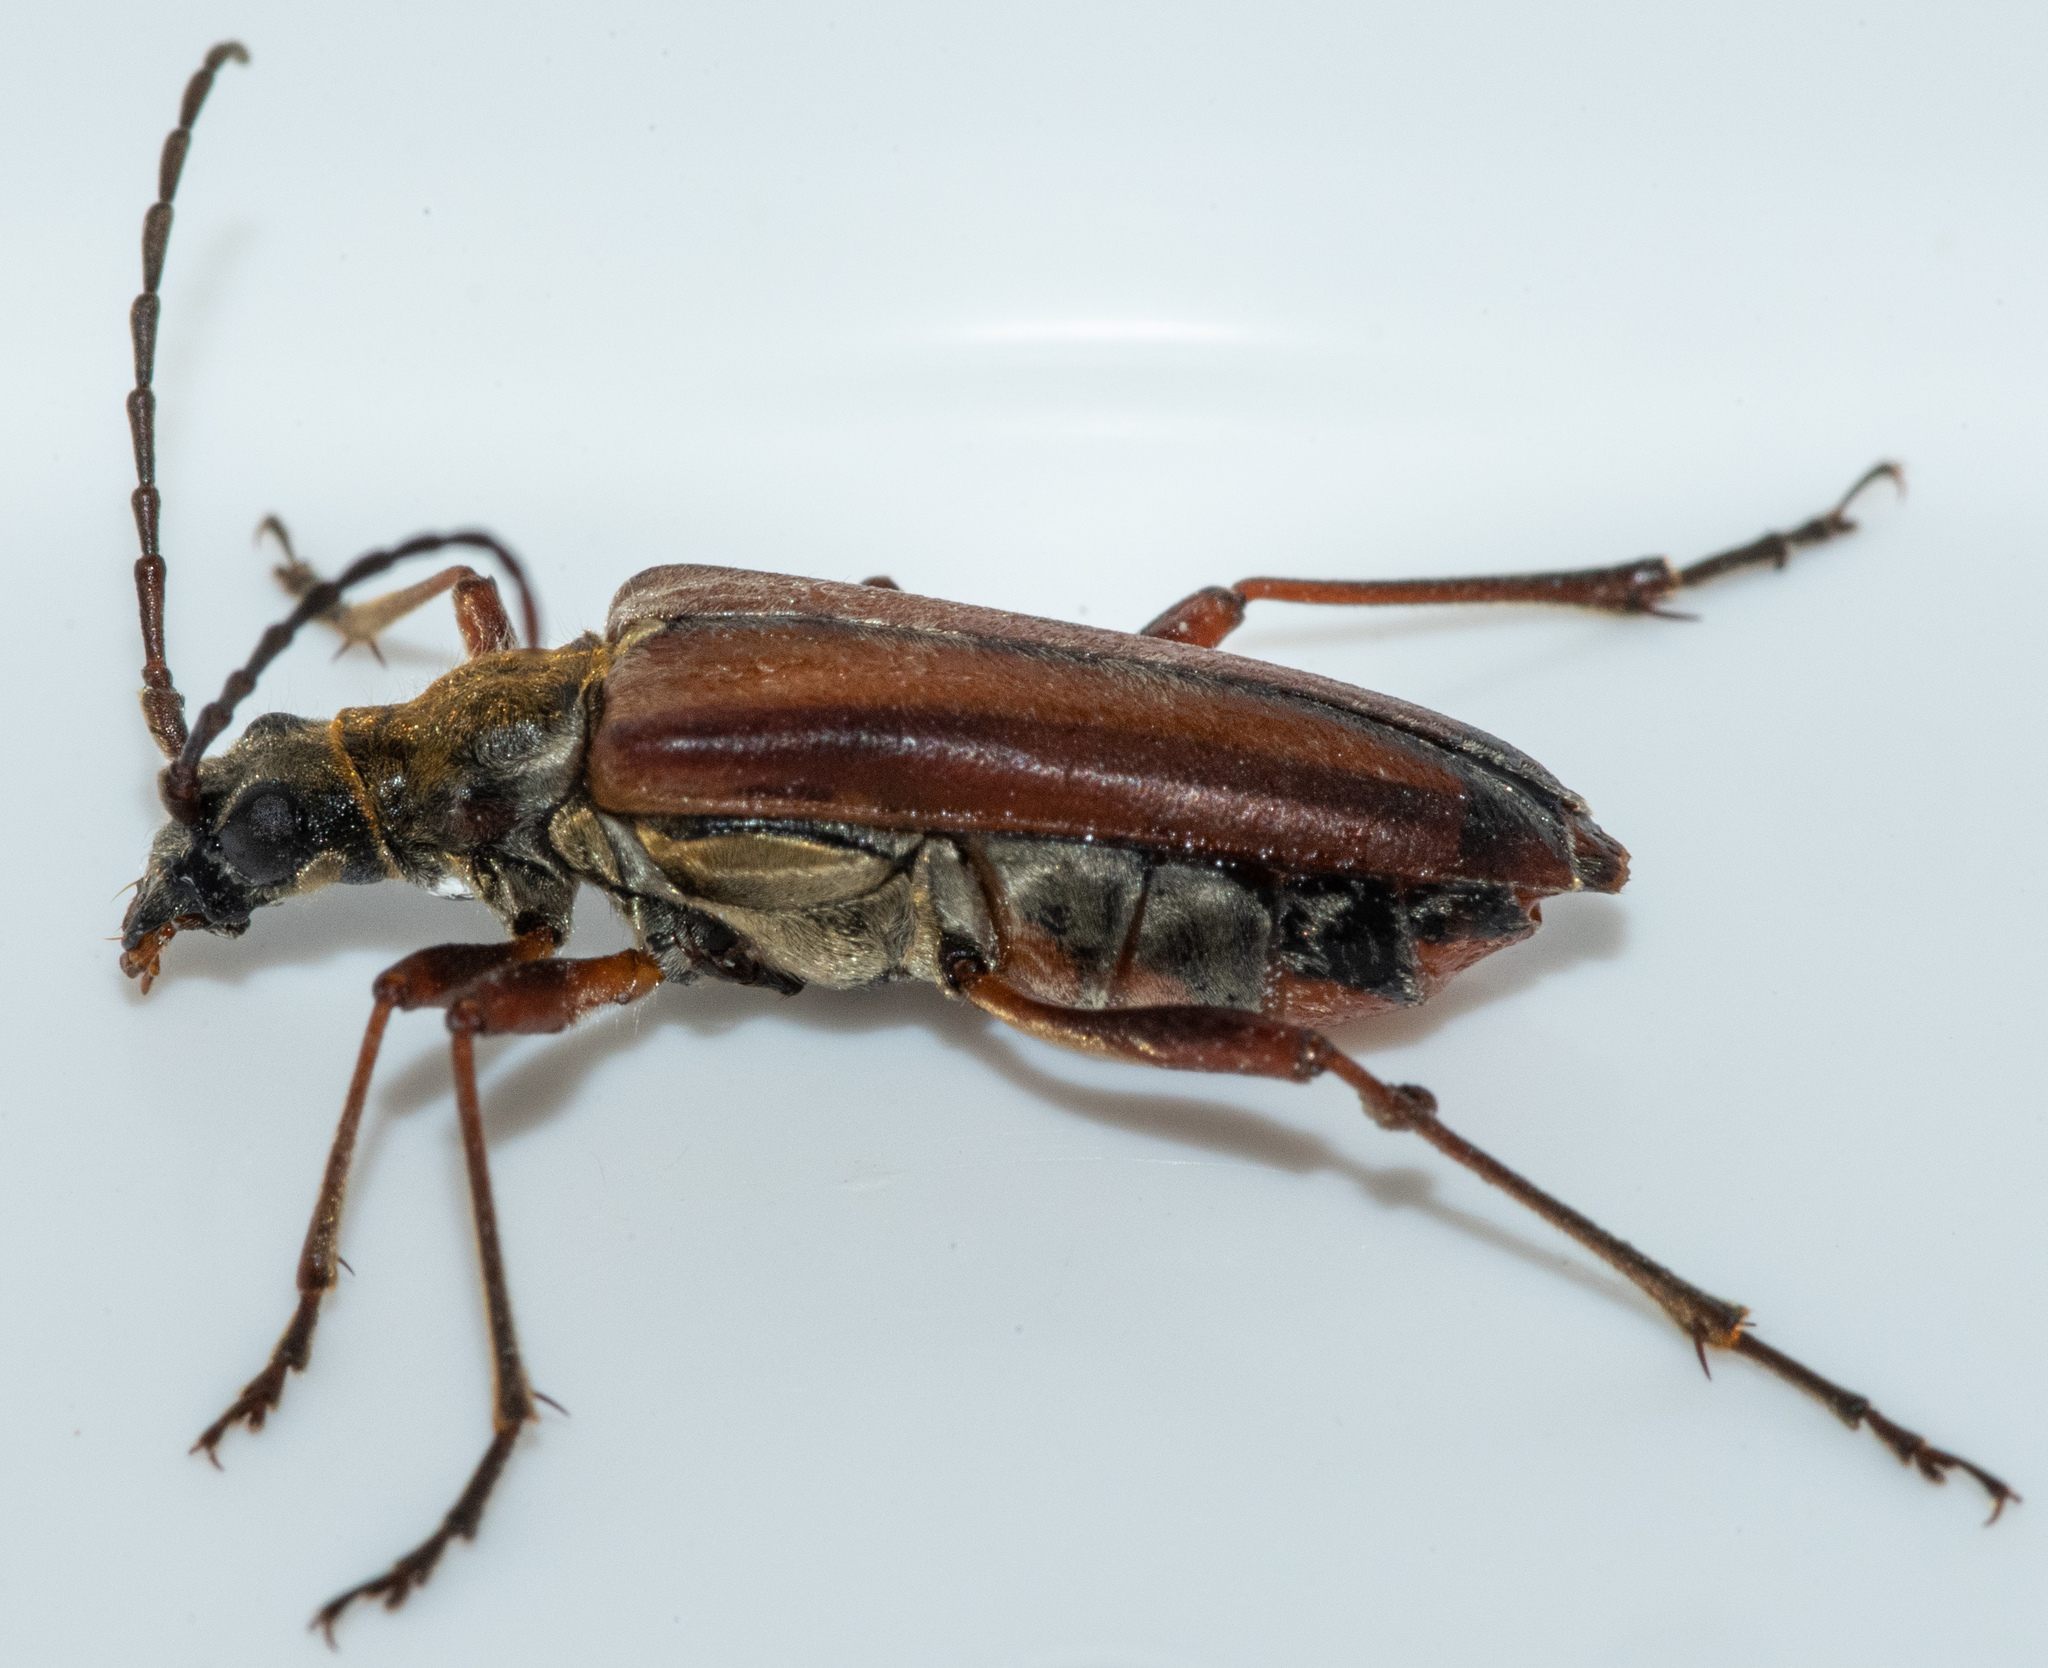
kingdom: Animalia
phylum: Arthropoda
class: Insecta
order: Coleoptera
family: Cerambycidae
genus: Stenocorus
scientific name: Stenocorus nubifer
